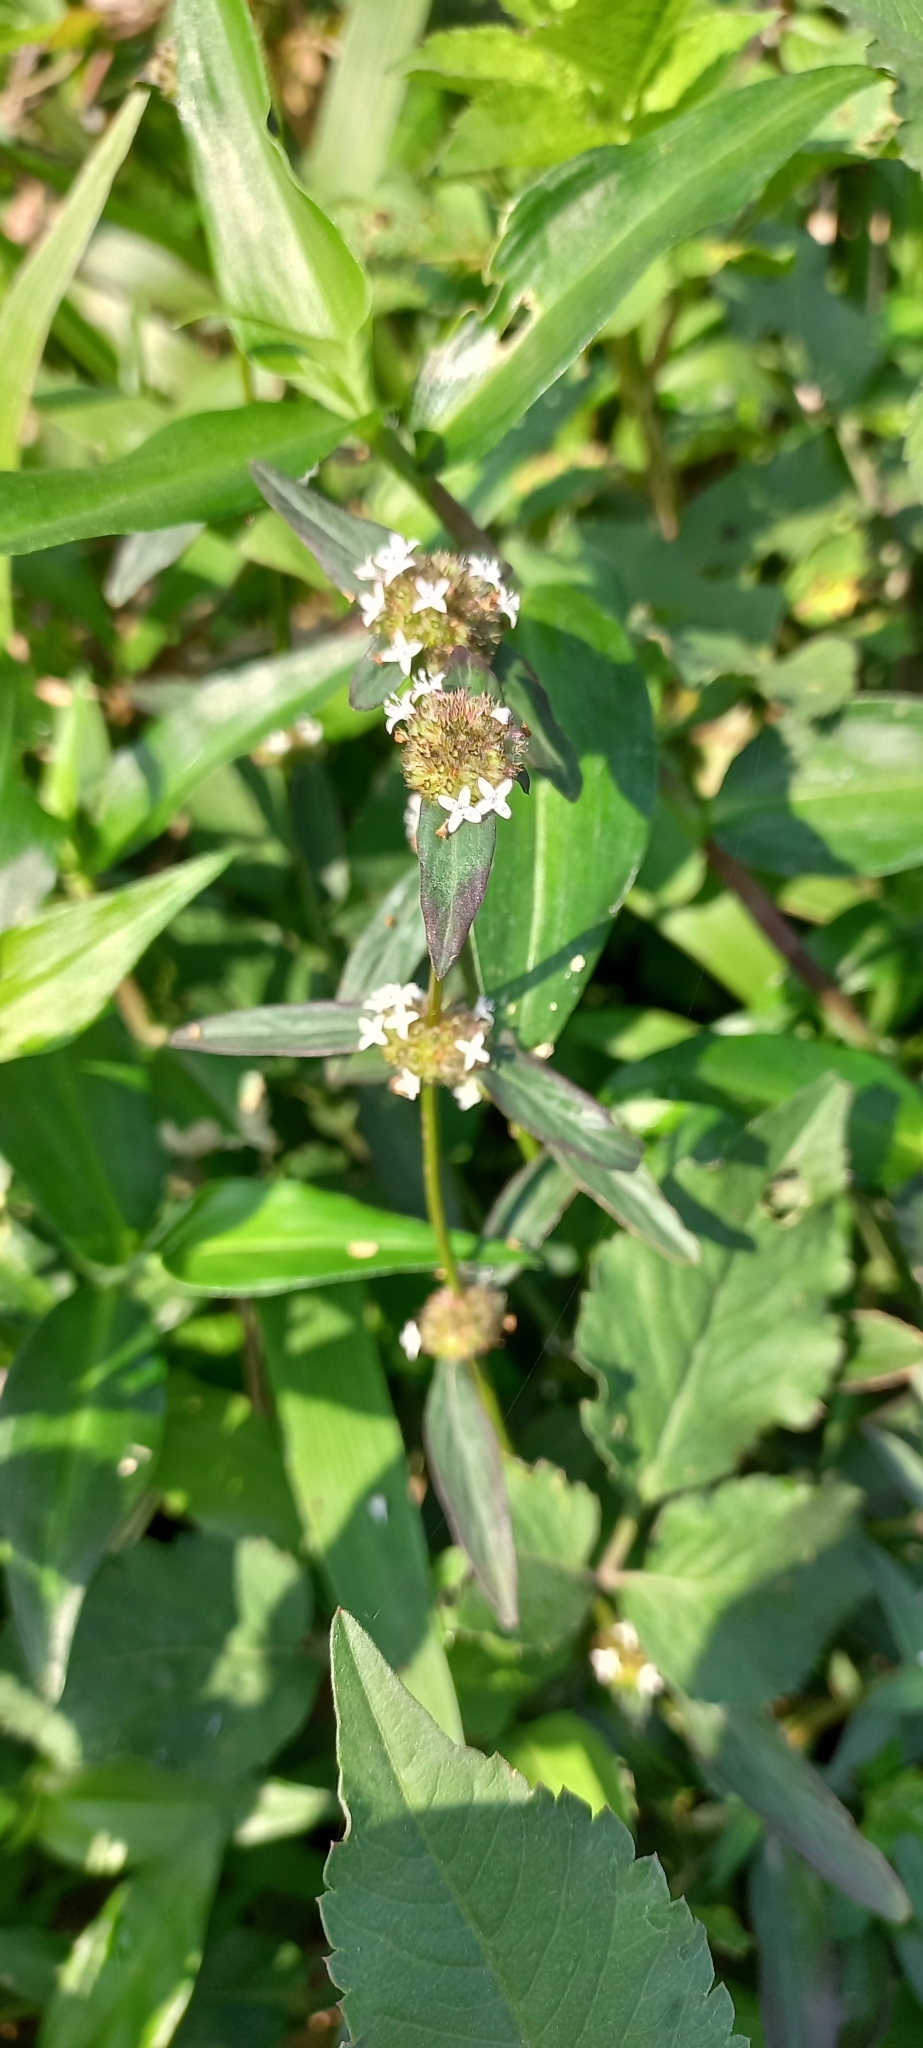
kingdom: Plantae
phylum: Tracheophyta
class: Magnoliopsida
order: Gentianales
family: Rubiaceae
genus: Spermacoce
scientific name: Spermacoce remota
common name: Woodland false buttonweed
